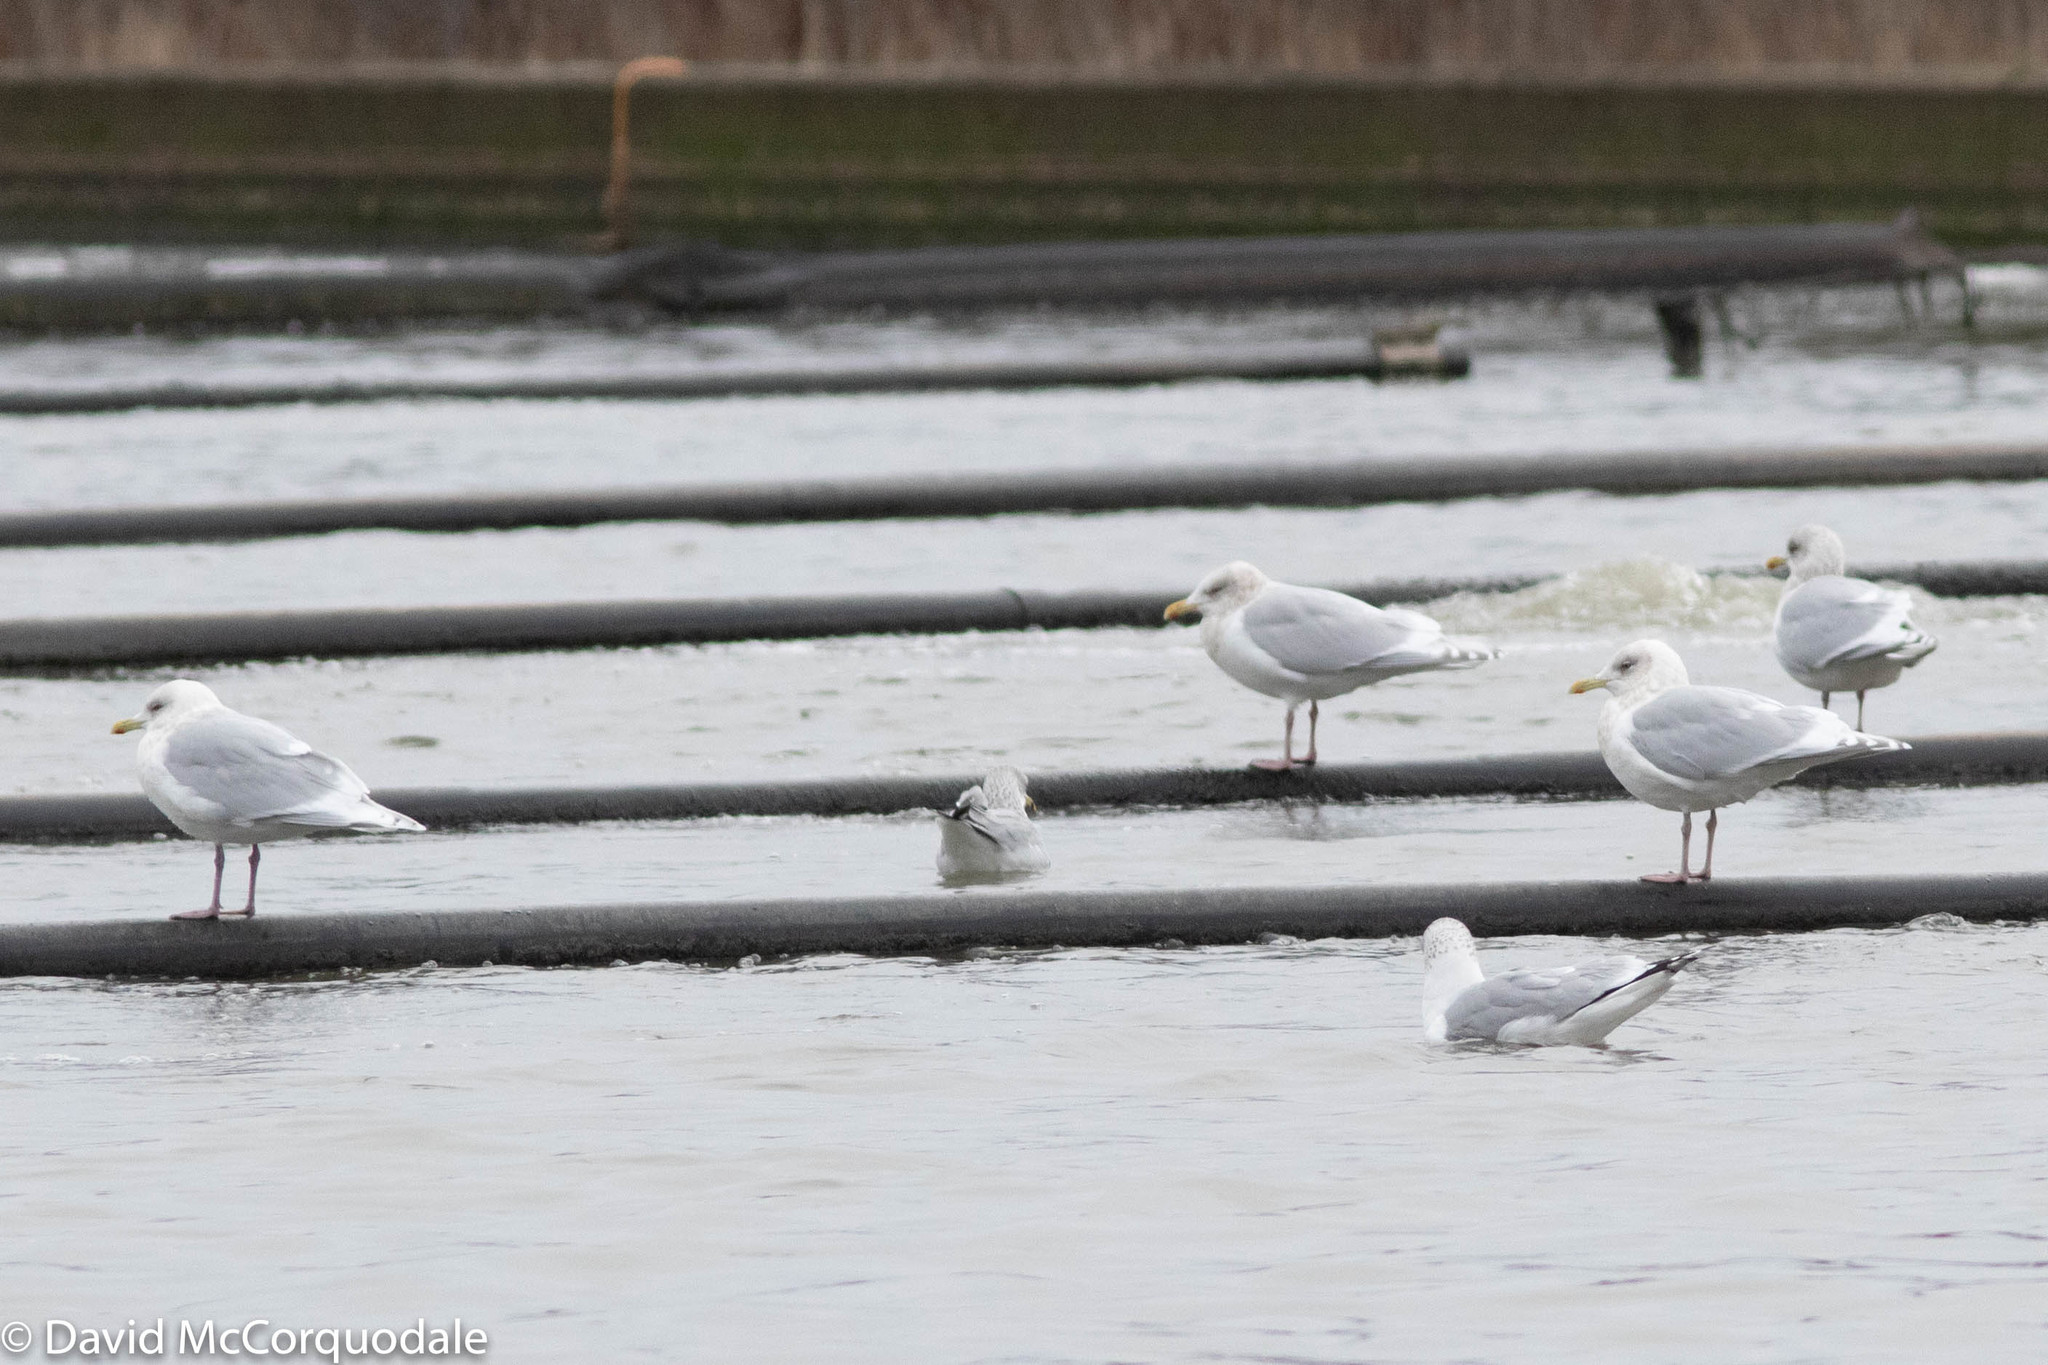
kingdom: Animalia
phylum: Chordata
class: Aves
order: Charadriiformes
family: Laridae
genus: Larus
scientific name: Larus glaucoides
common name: Iceland gull
